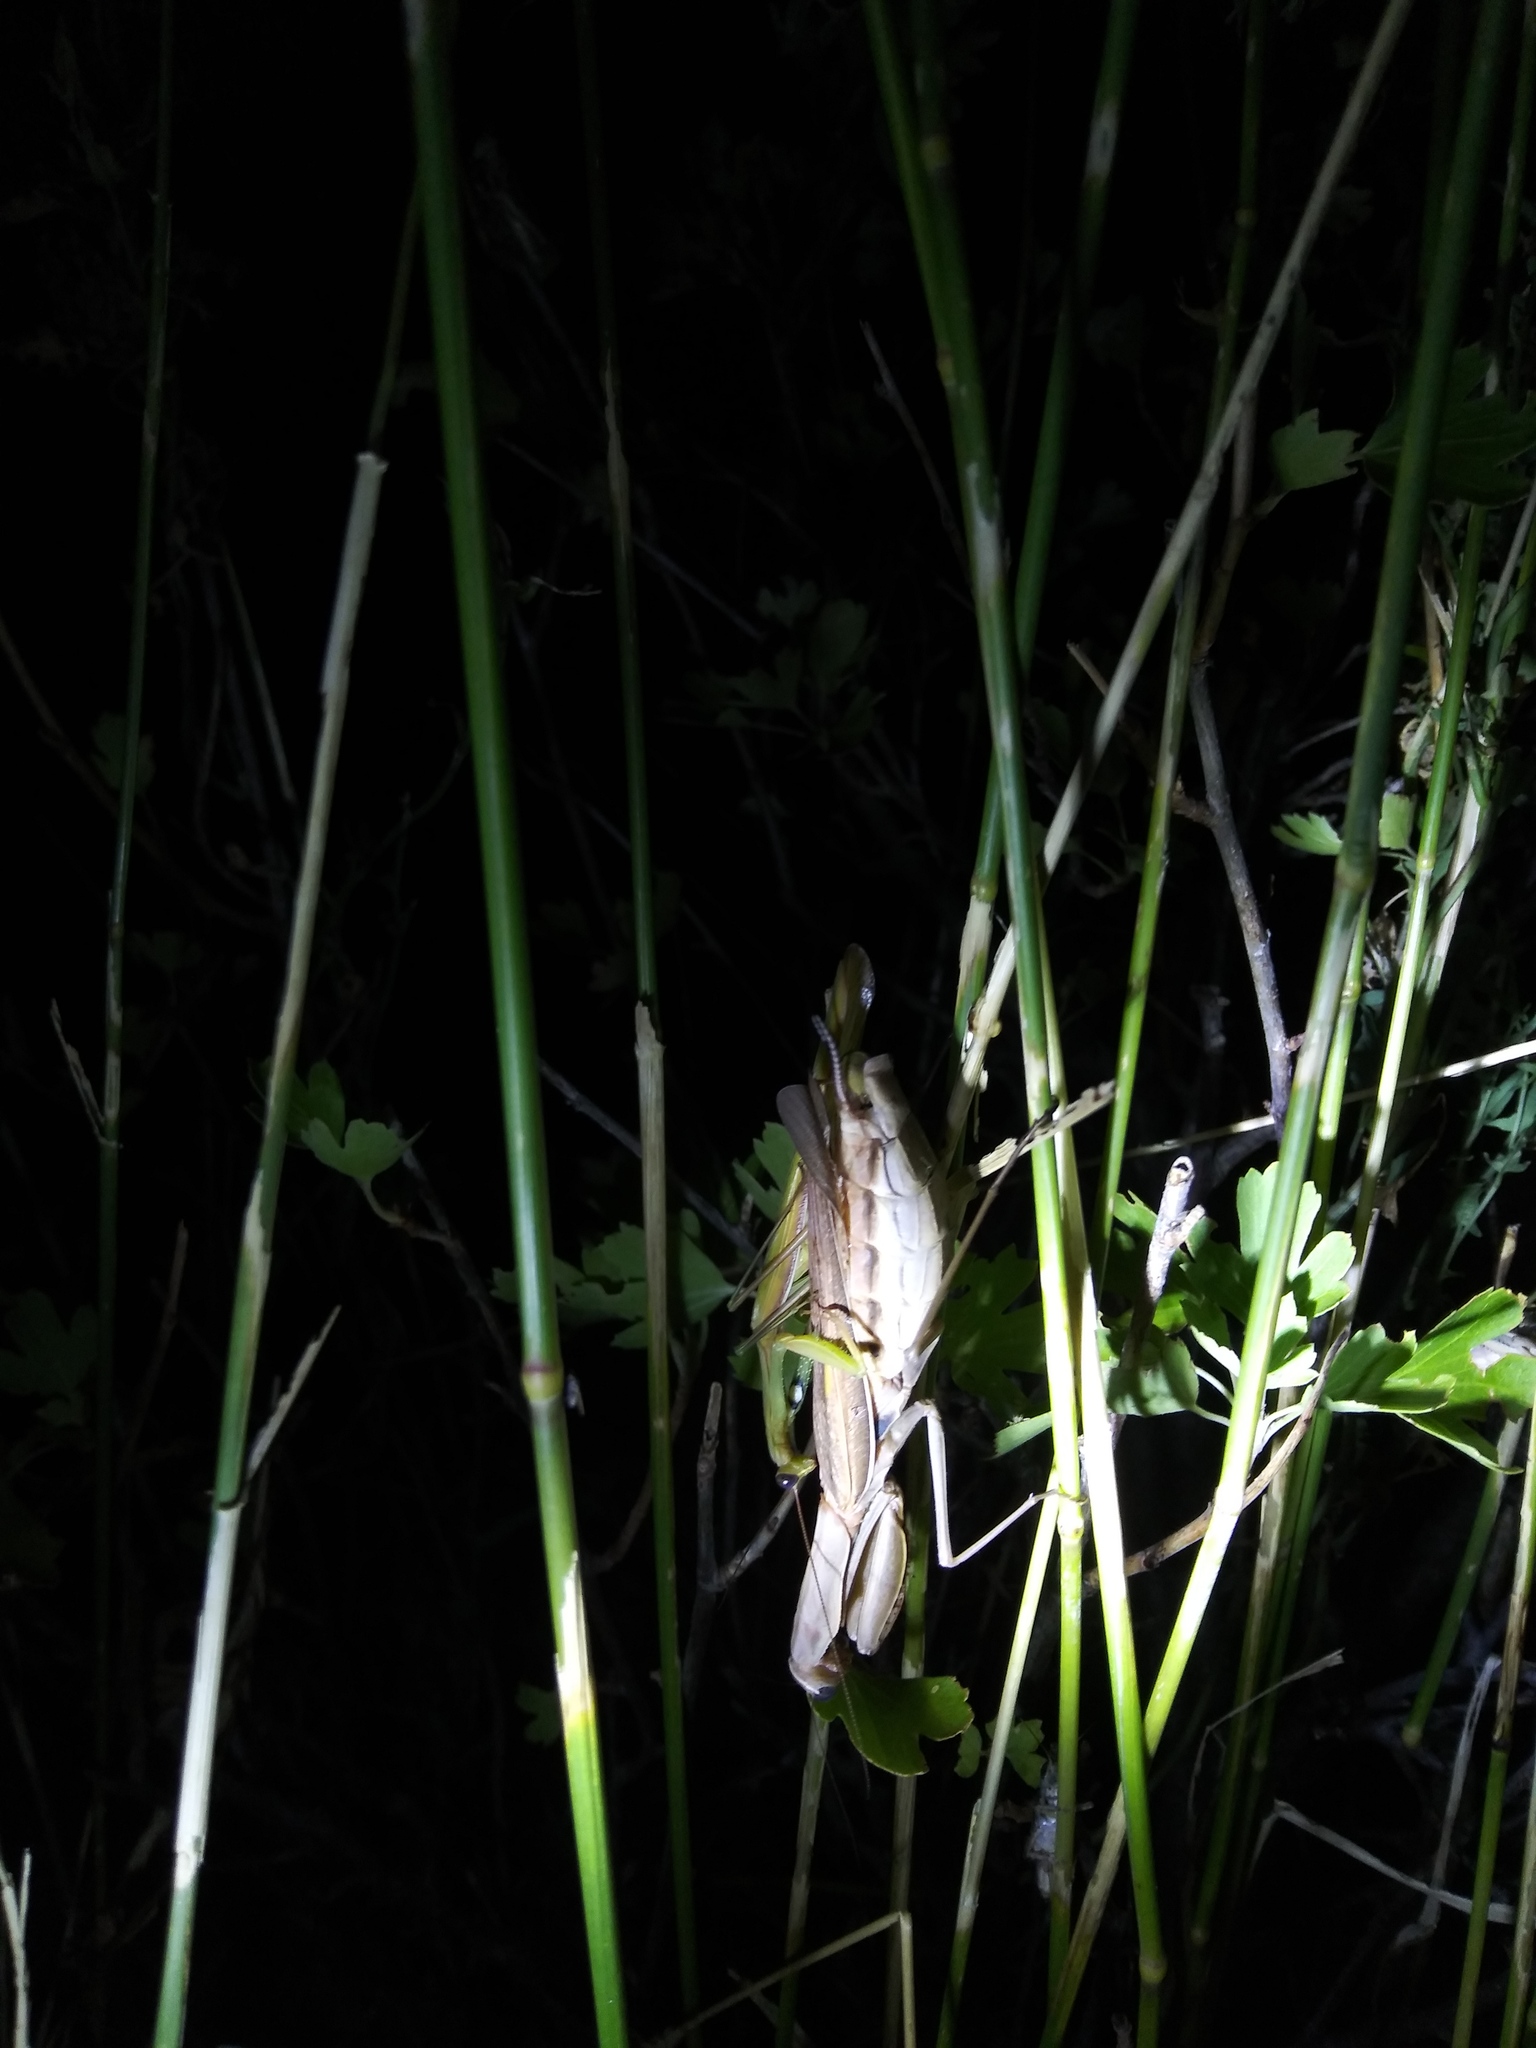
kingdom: Animalia
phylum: Arthropoda
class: Insecta
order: Mantodea
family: Mantidae
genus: Mantis
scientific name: Mantis religiosa
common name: Praying mantis
